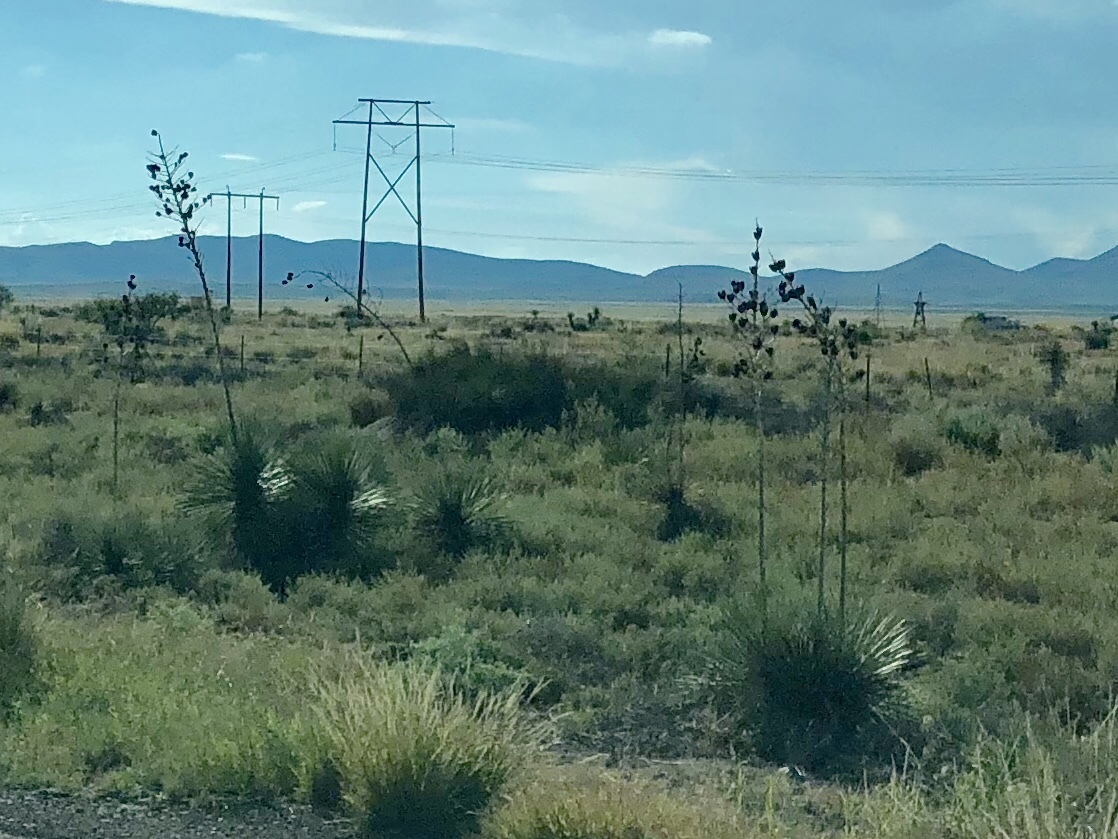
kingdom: Plantae
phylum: Tracheophyta
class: Liliopsida
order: Asparagales
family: Asparagaceae
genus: Yucca
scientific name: Yucca elata
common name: Palmella
